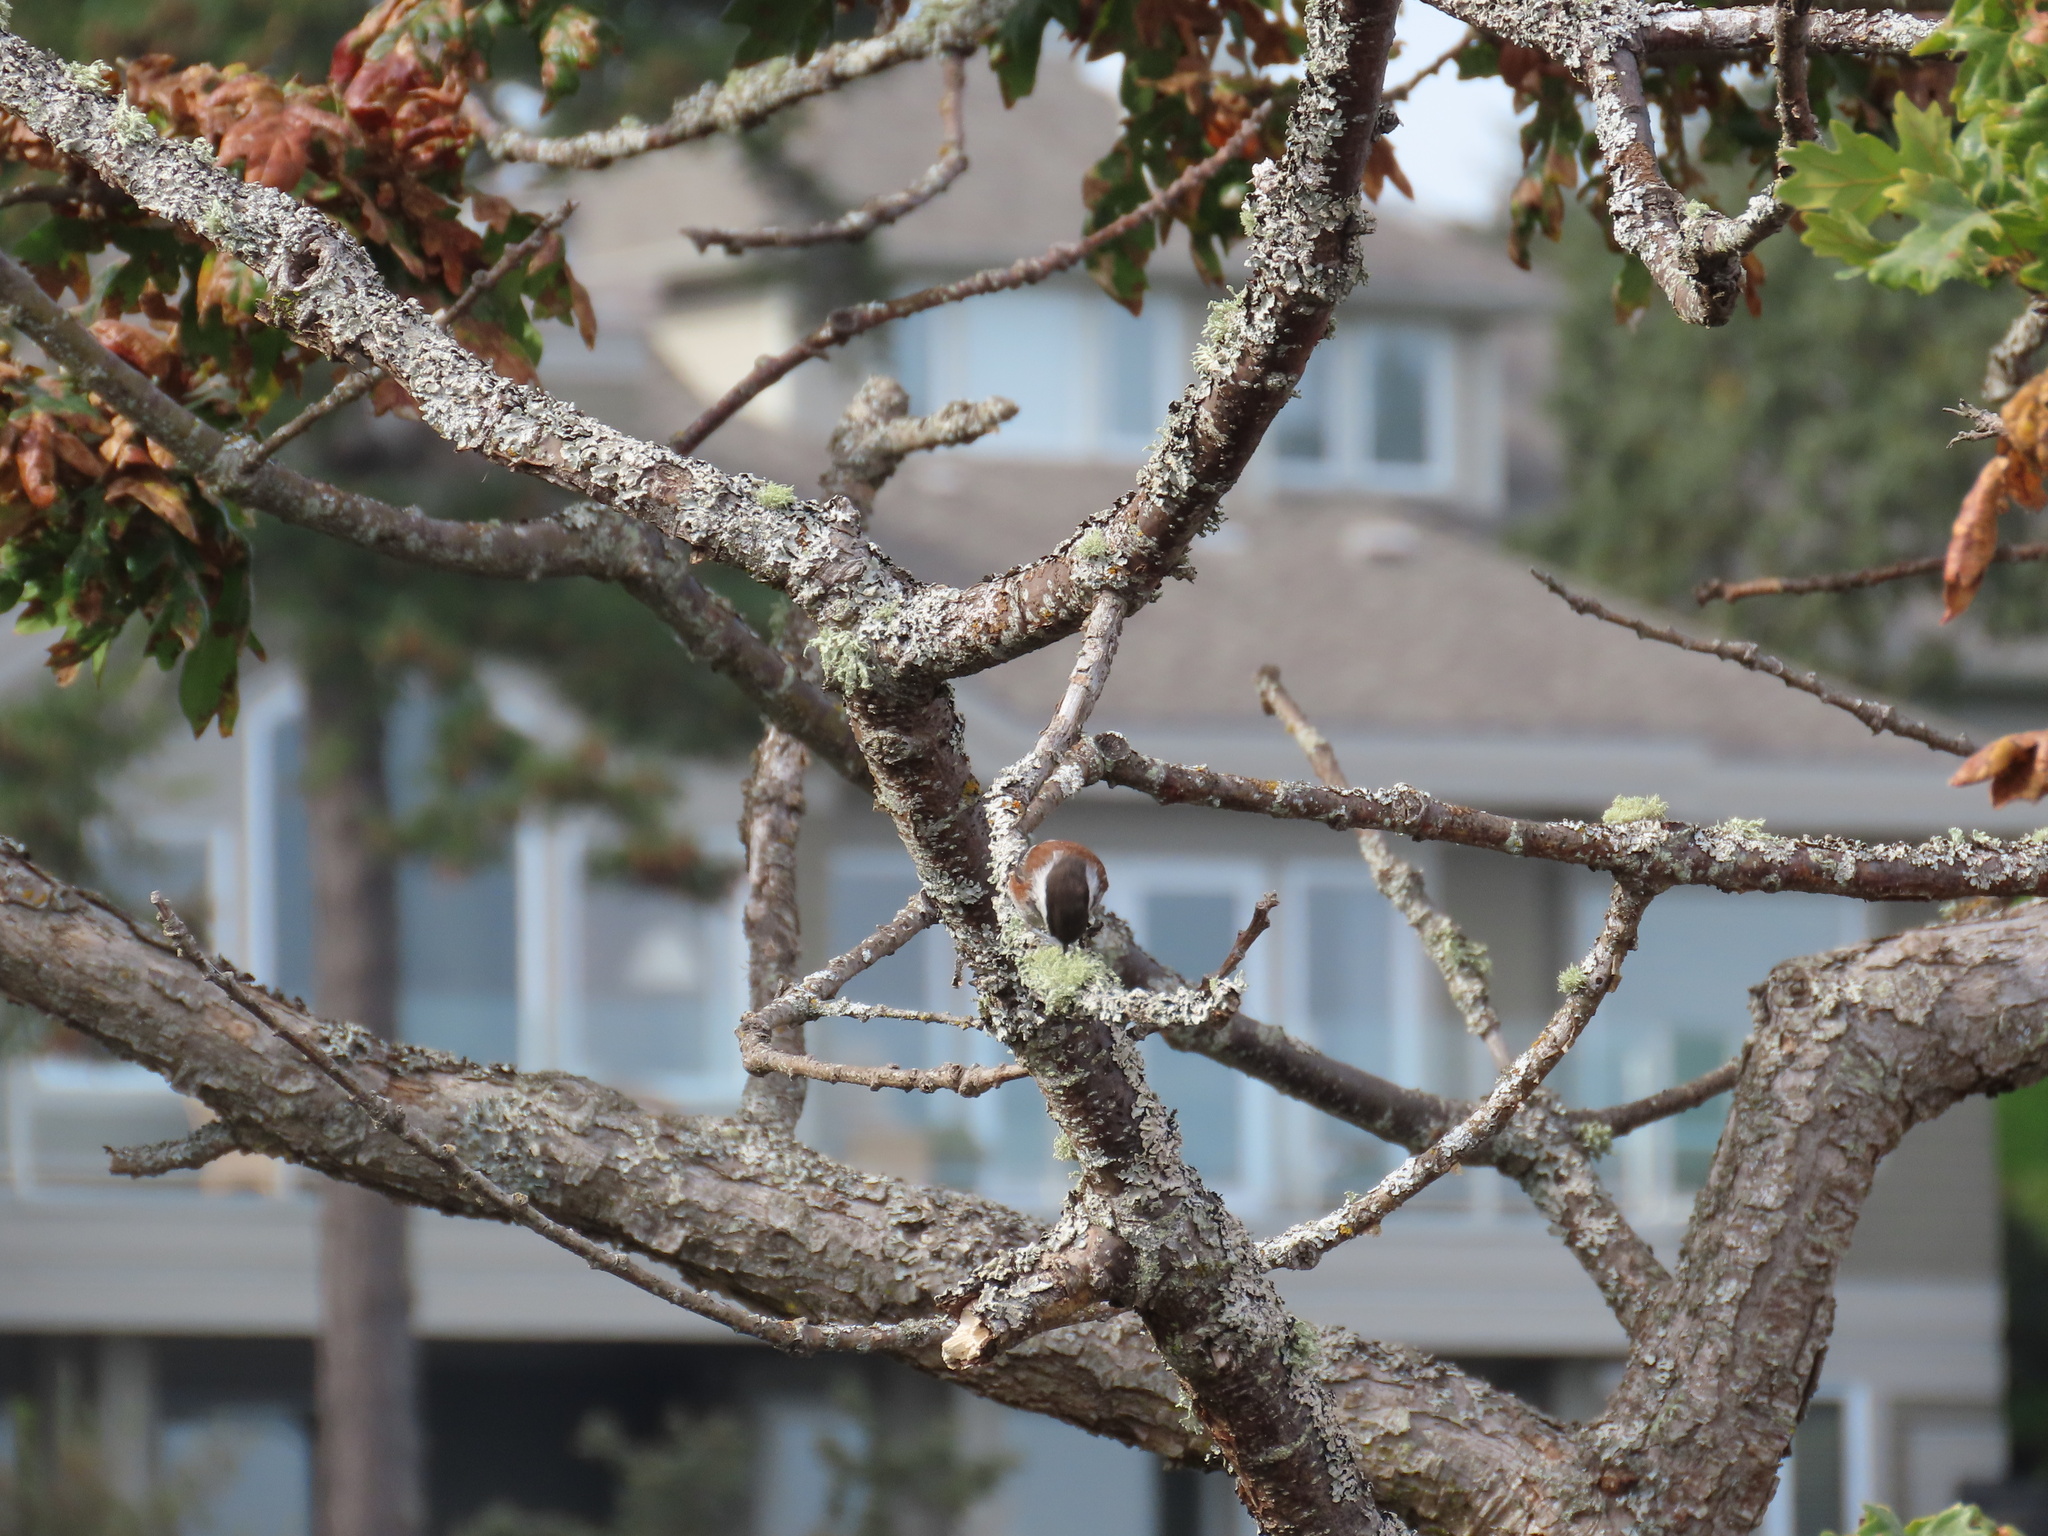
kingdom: Animalia
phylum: Chordata
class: Aves
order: Passeriformes
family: Paridae
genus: Poecile
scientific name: Poecile rufescens
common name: Chestnut-backed chickadee
